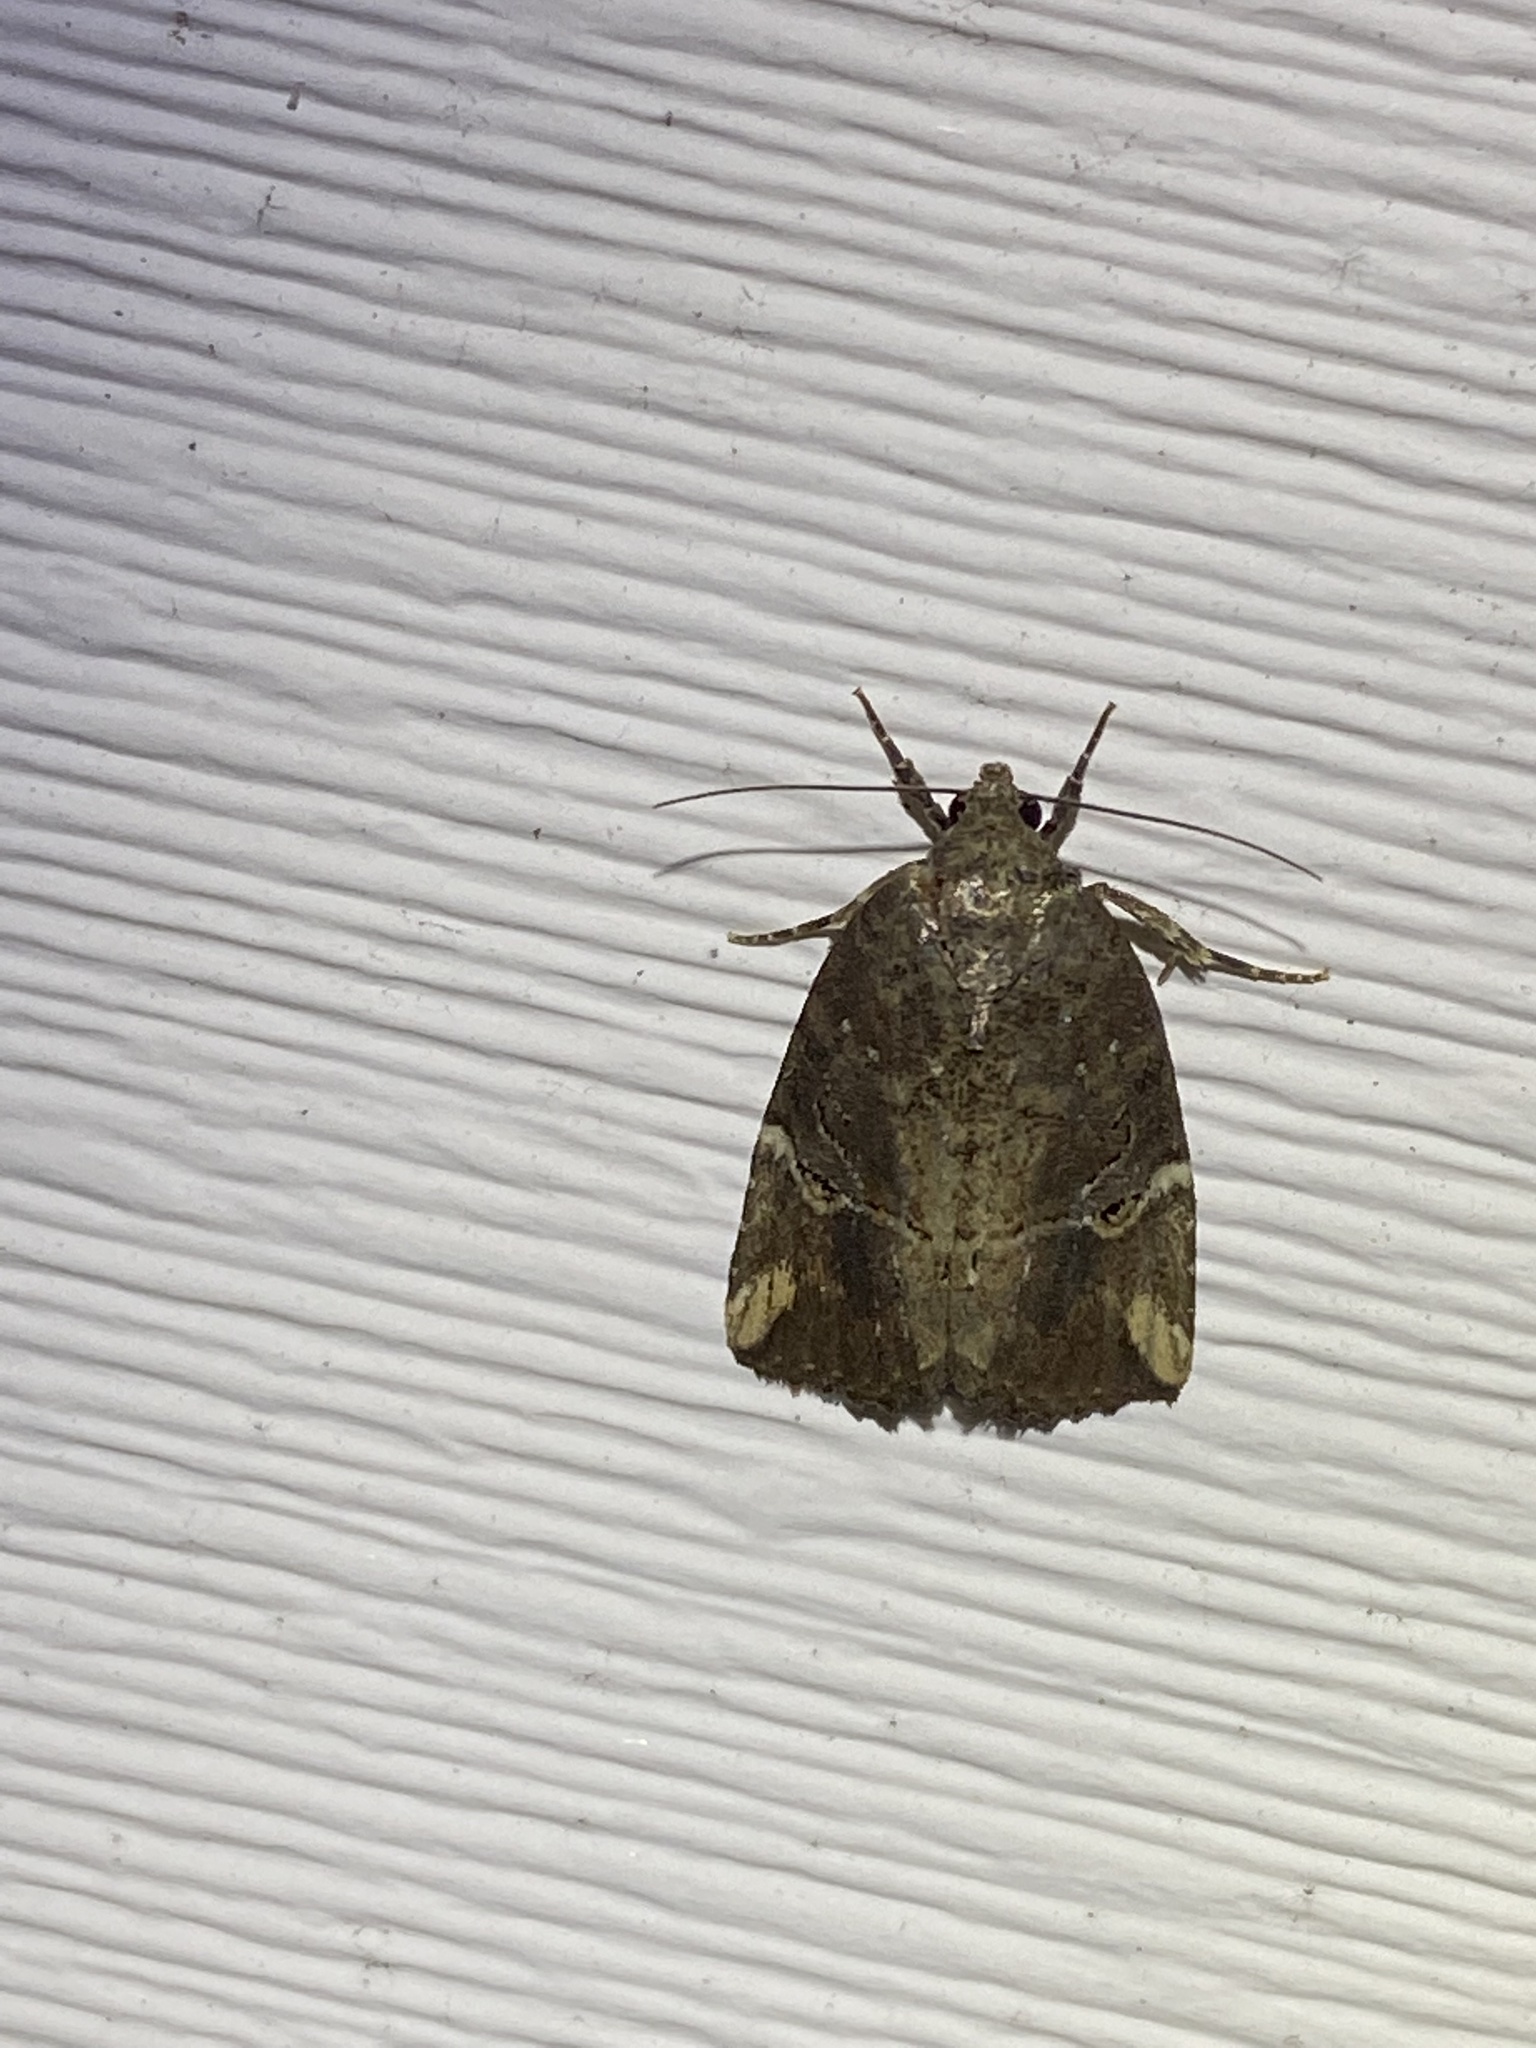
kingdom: Animalia
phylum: Arthropoda
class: Insecta
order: Lepidoptera
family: Noctuidae
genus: Elaphria
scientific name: Elaphria versicolor
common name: Fir harlequin
